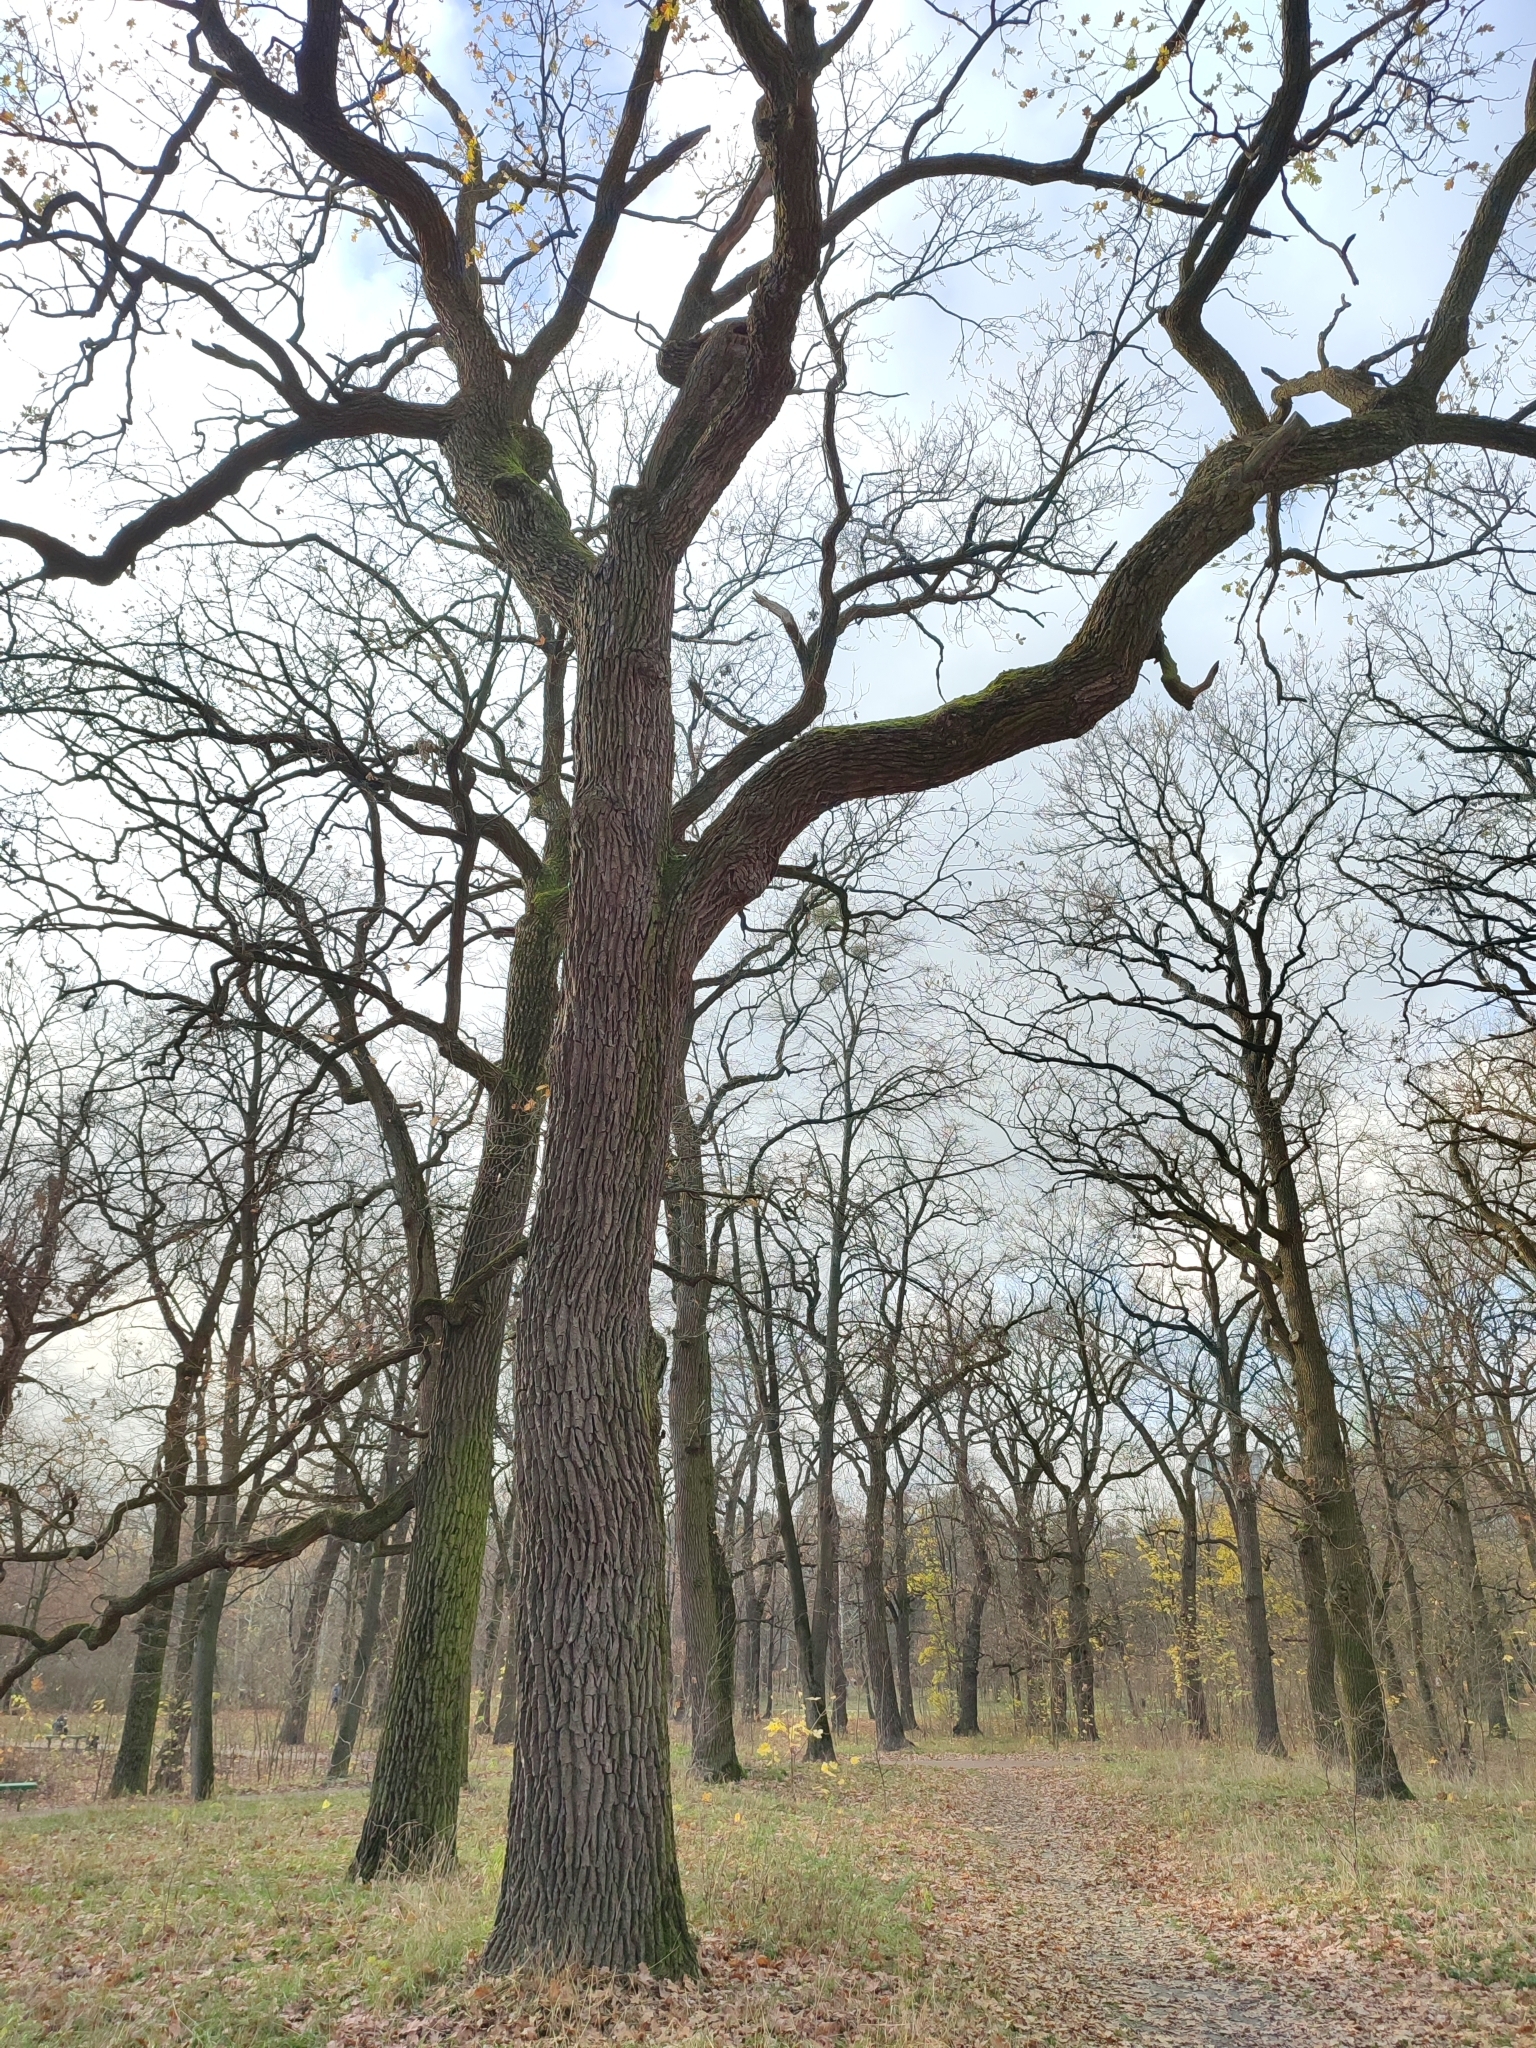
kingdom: Plantae
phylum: Tracheophyta
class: Magnoliopsida
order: Fagales
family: Fagaceae
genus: Quercus
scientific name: Quercus robur
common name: Pedunculate oak
